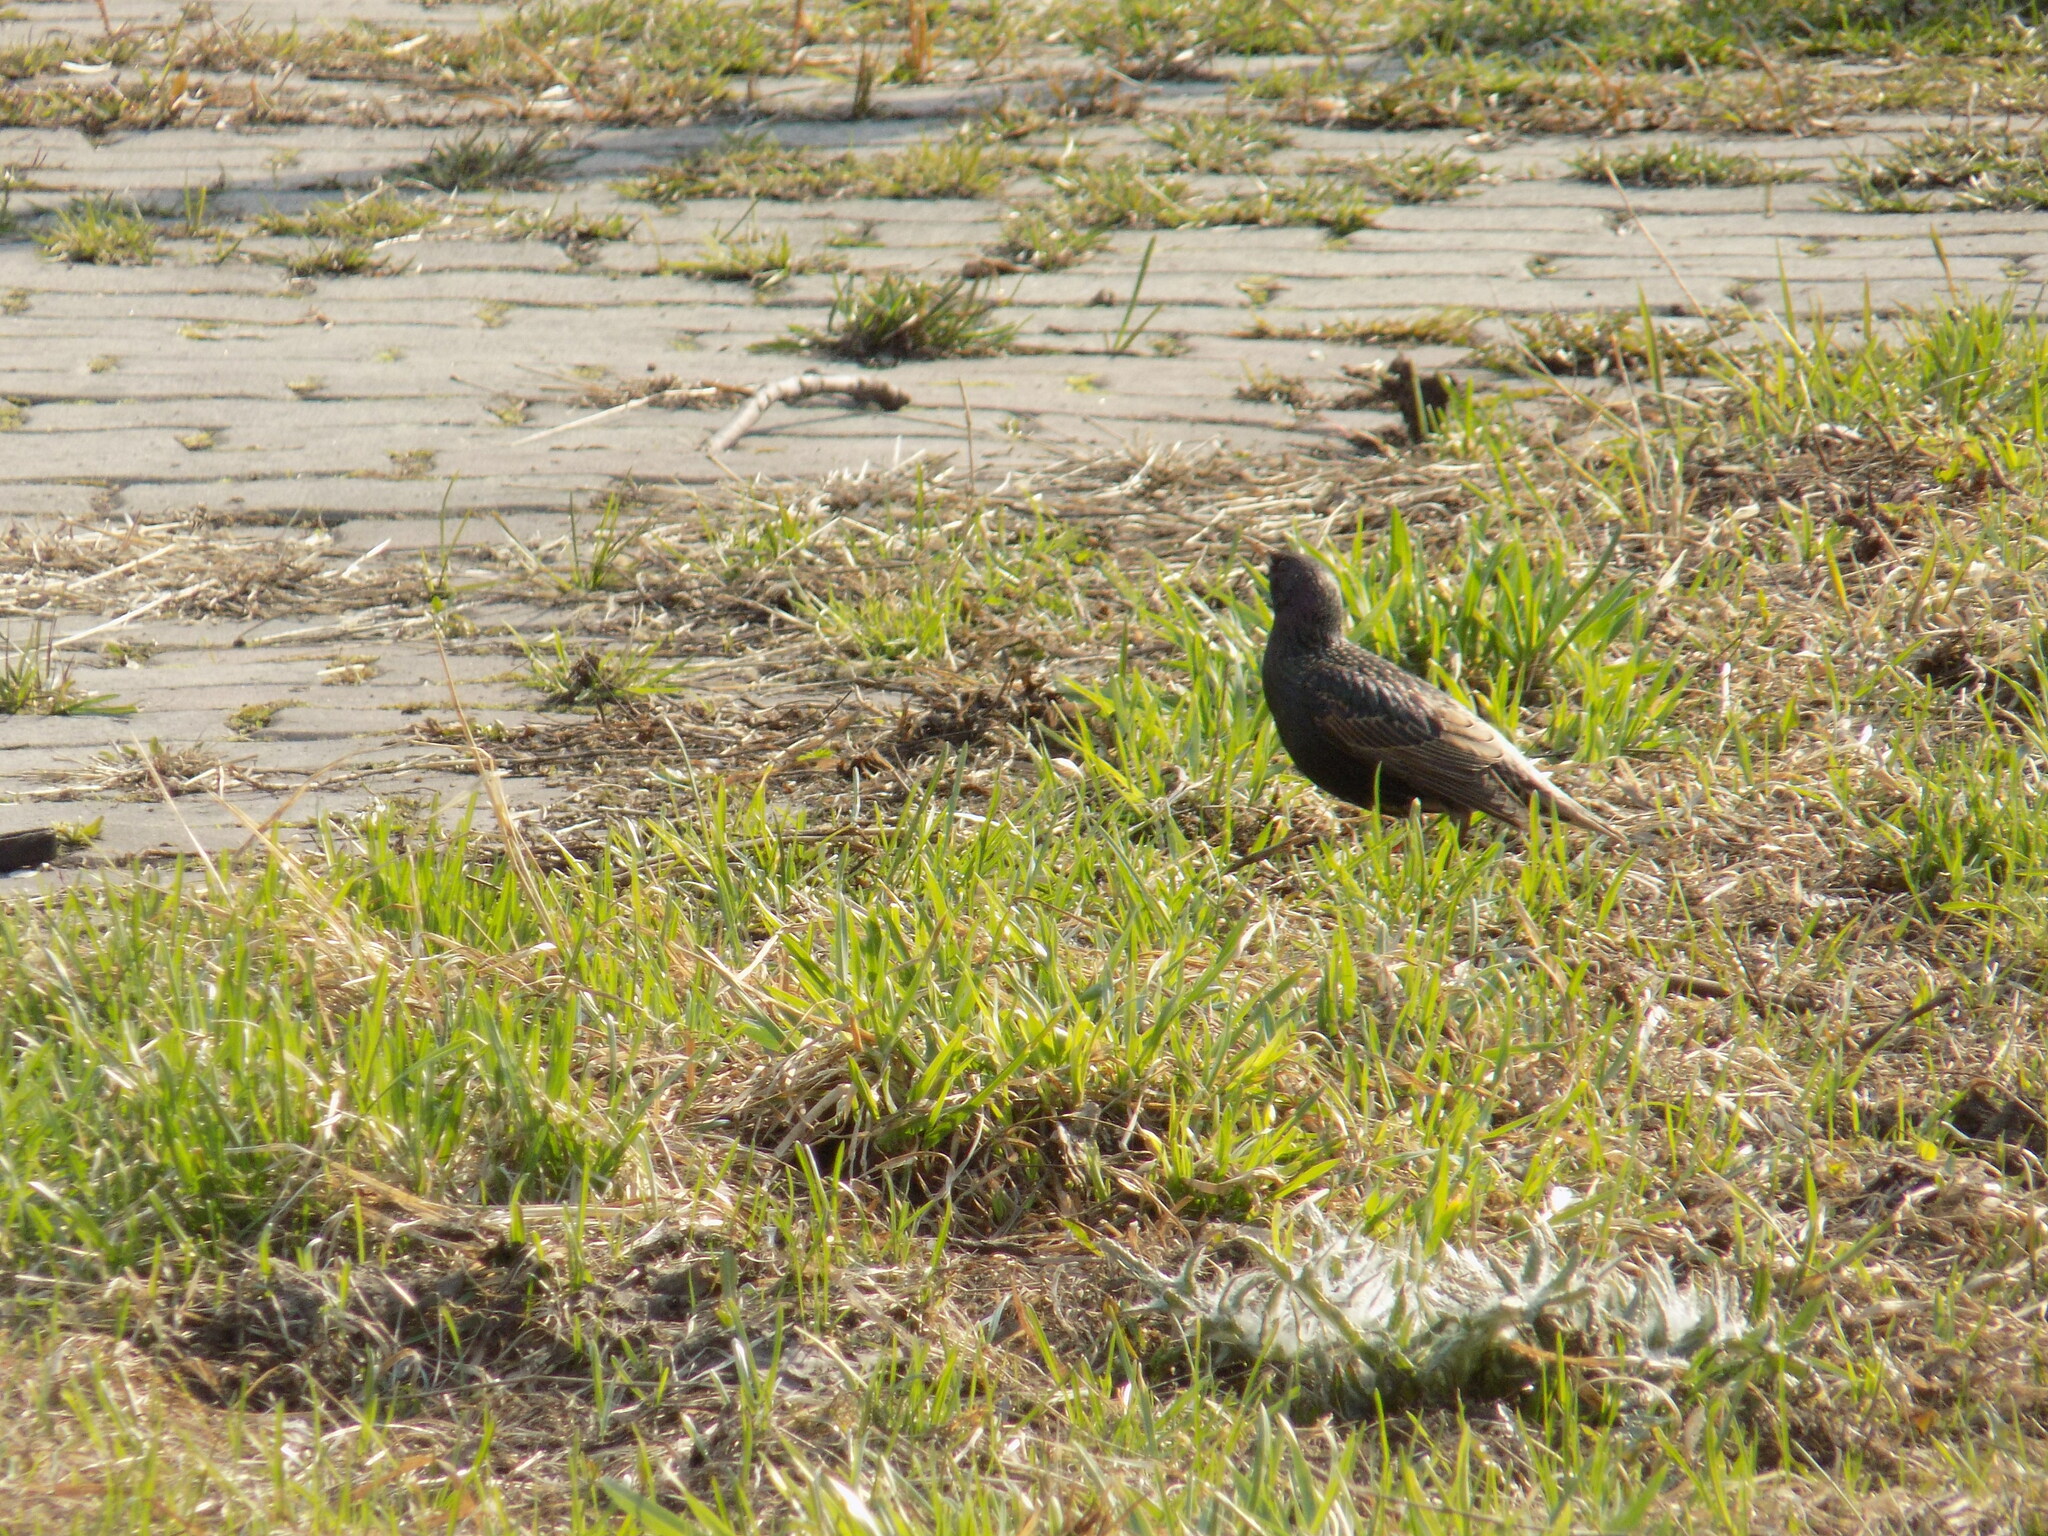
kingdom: Animalia
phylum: Chordata
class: Aves
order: Passeriformes
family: Sturnidae
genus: Sturnus
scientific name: Sturnus vulgaris
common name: Common starling
